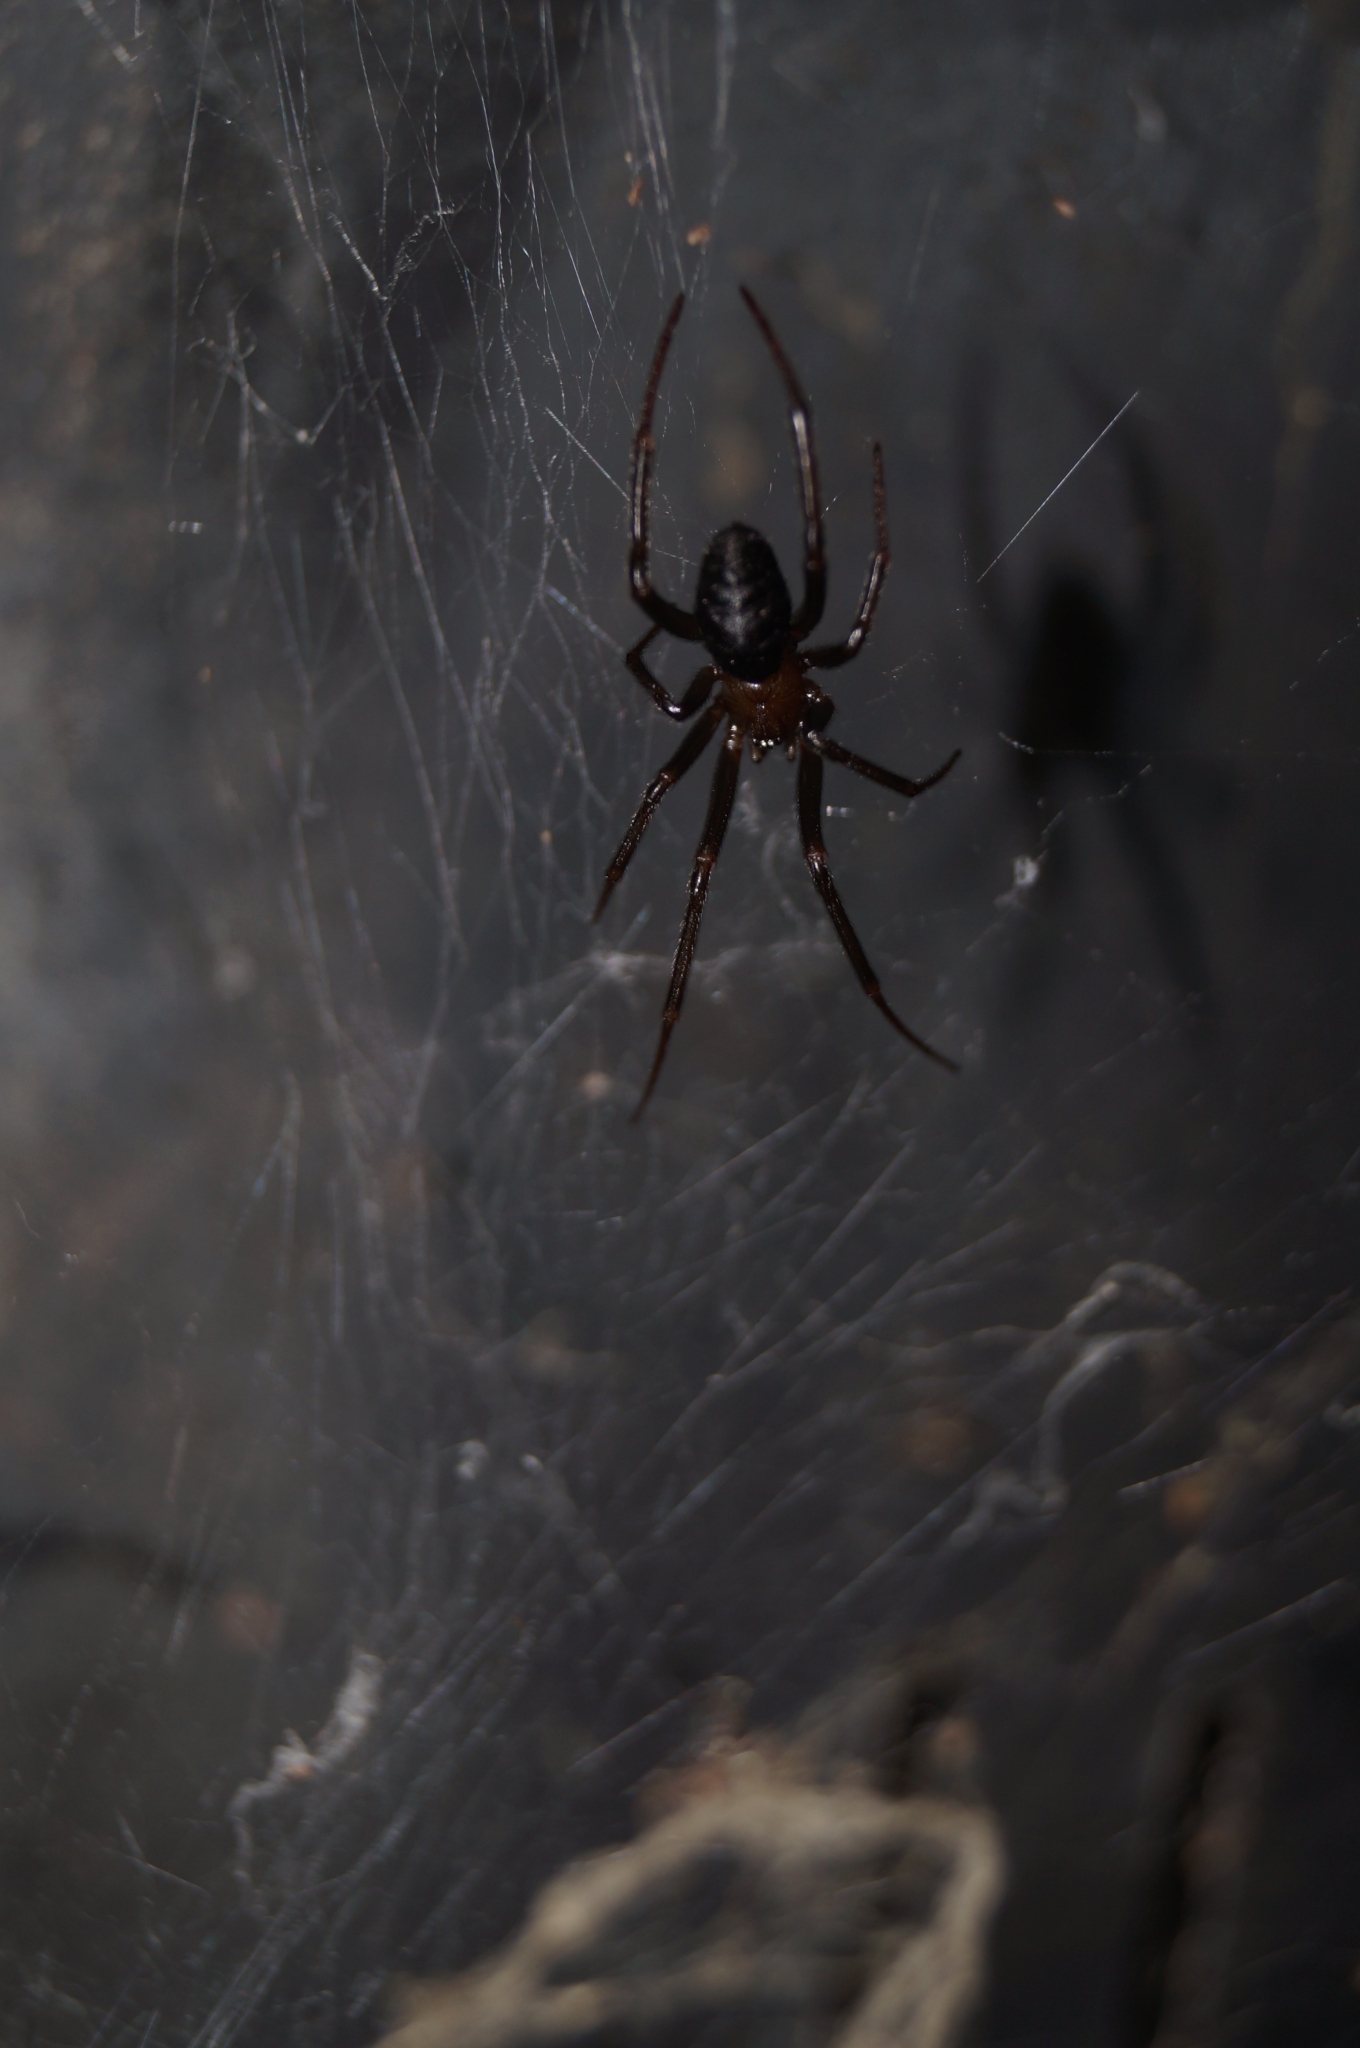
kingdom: Animalia
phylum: Arthropoda
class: Arachnida
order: Araneae
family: Theridiidae
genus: Steatoda
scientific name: Steatoda grossa
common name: False black widow
